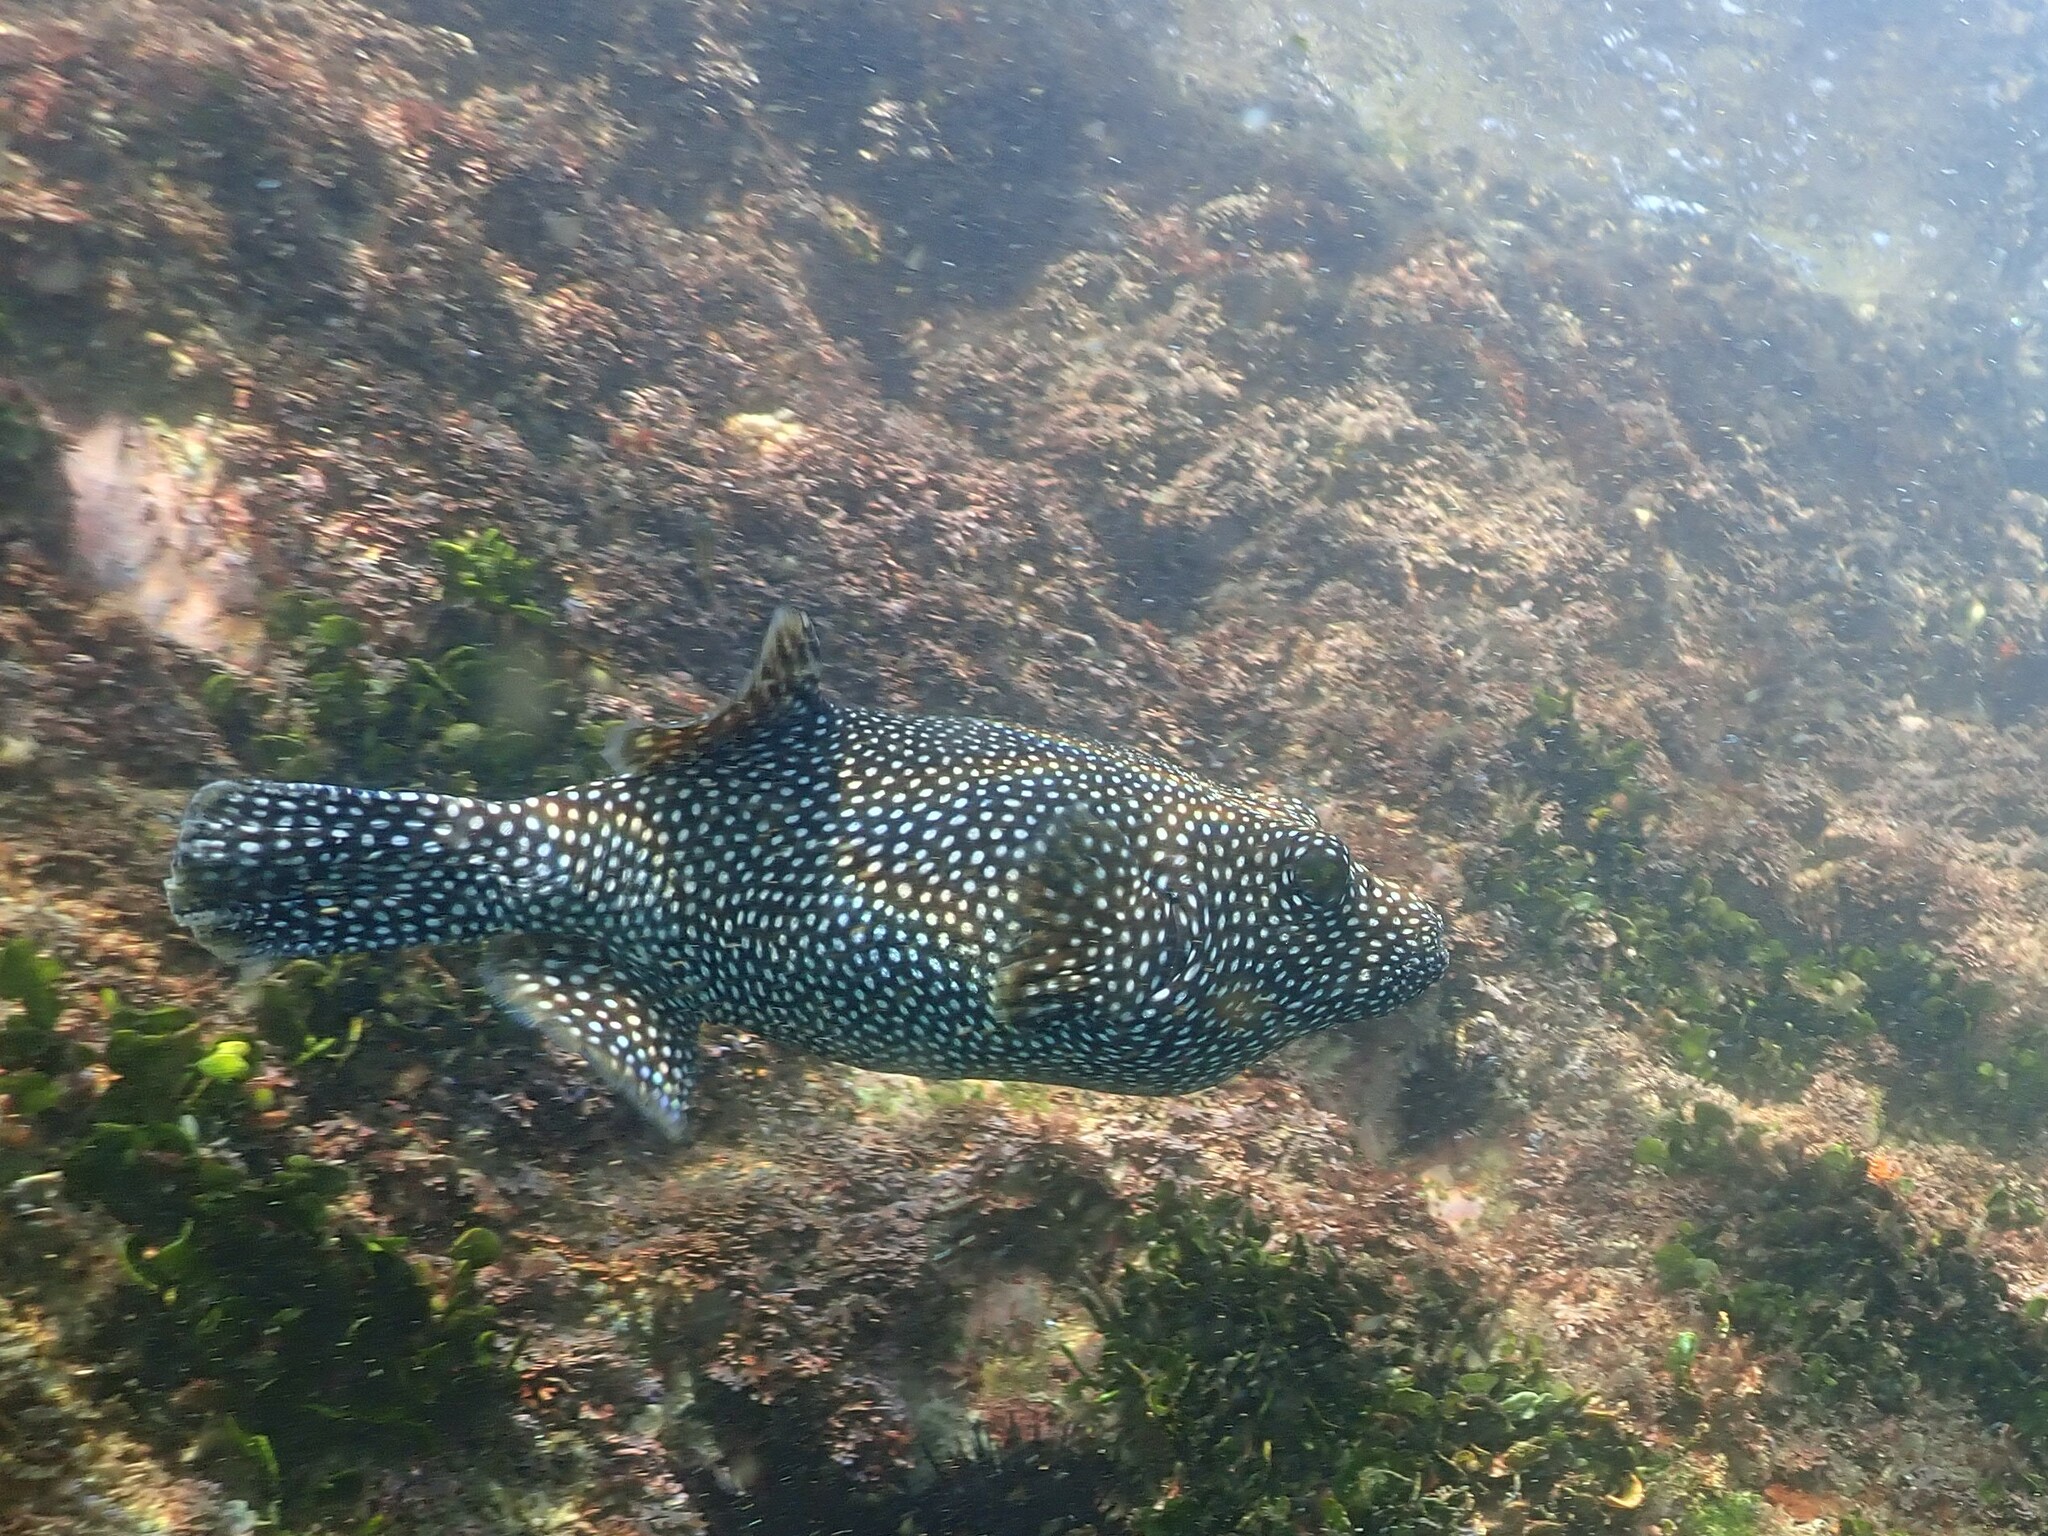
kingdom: Animalia
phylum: Chordata
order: Tetraodontiformes
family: Tetraodontidae
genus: Arothron
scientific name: Arothron meleagris
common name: Guinea-fowl pufferfish
